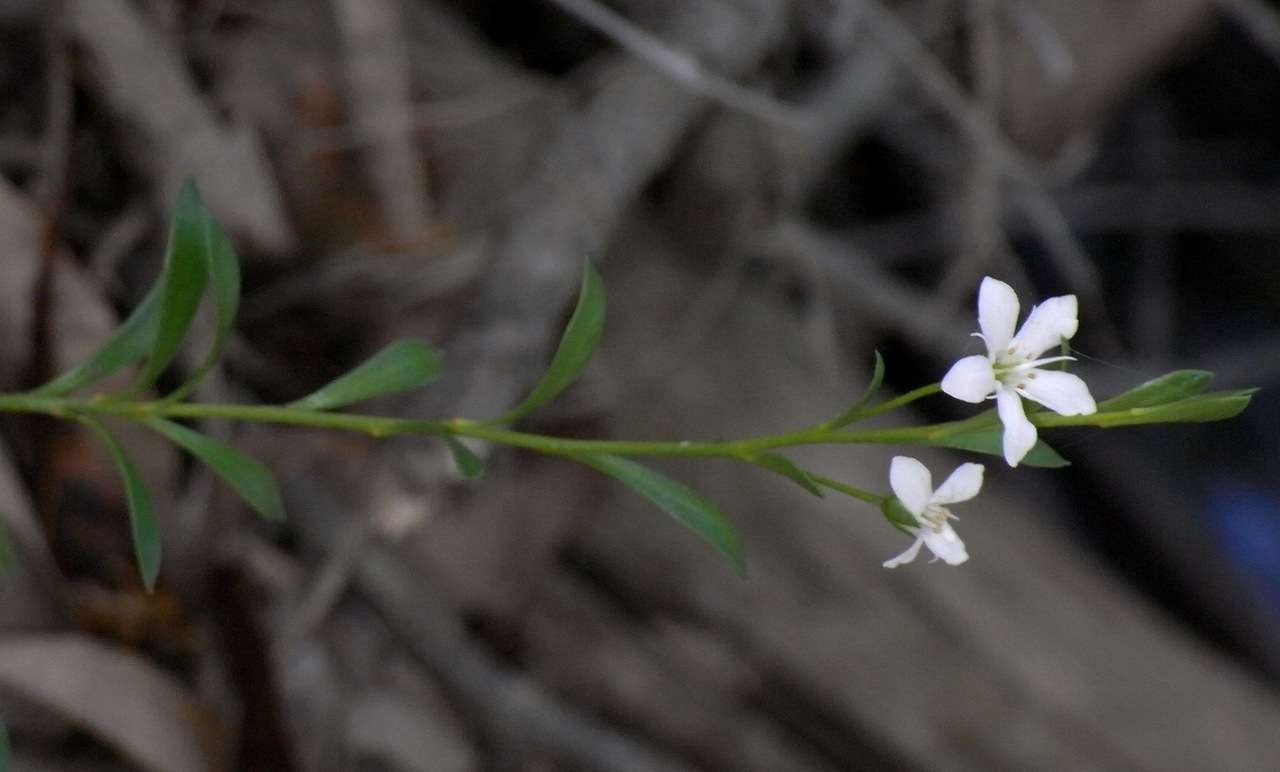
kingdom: Plantae
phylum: Tracheophyta
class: Magnoliopsida
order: Ericales
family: Primulaceae
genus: Samolus
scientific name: Samolus repens
